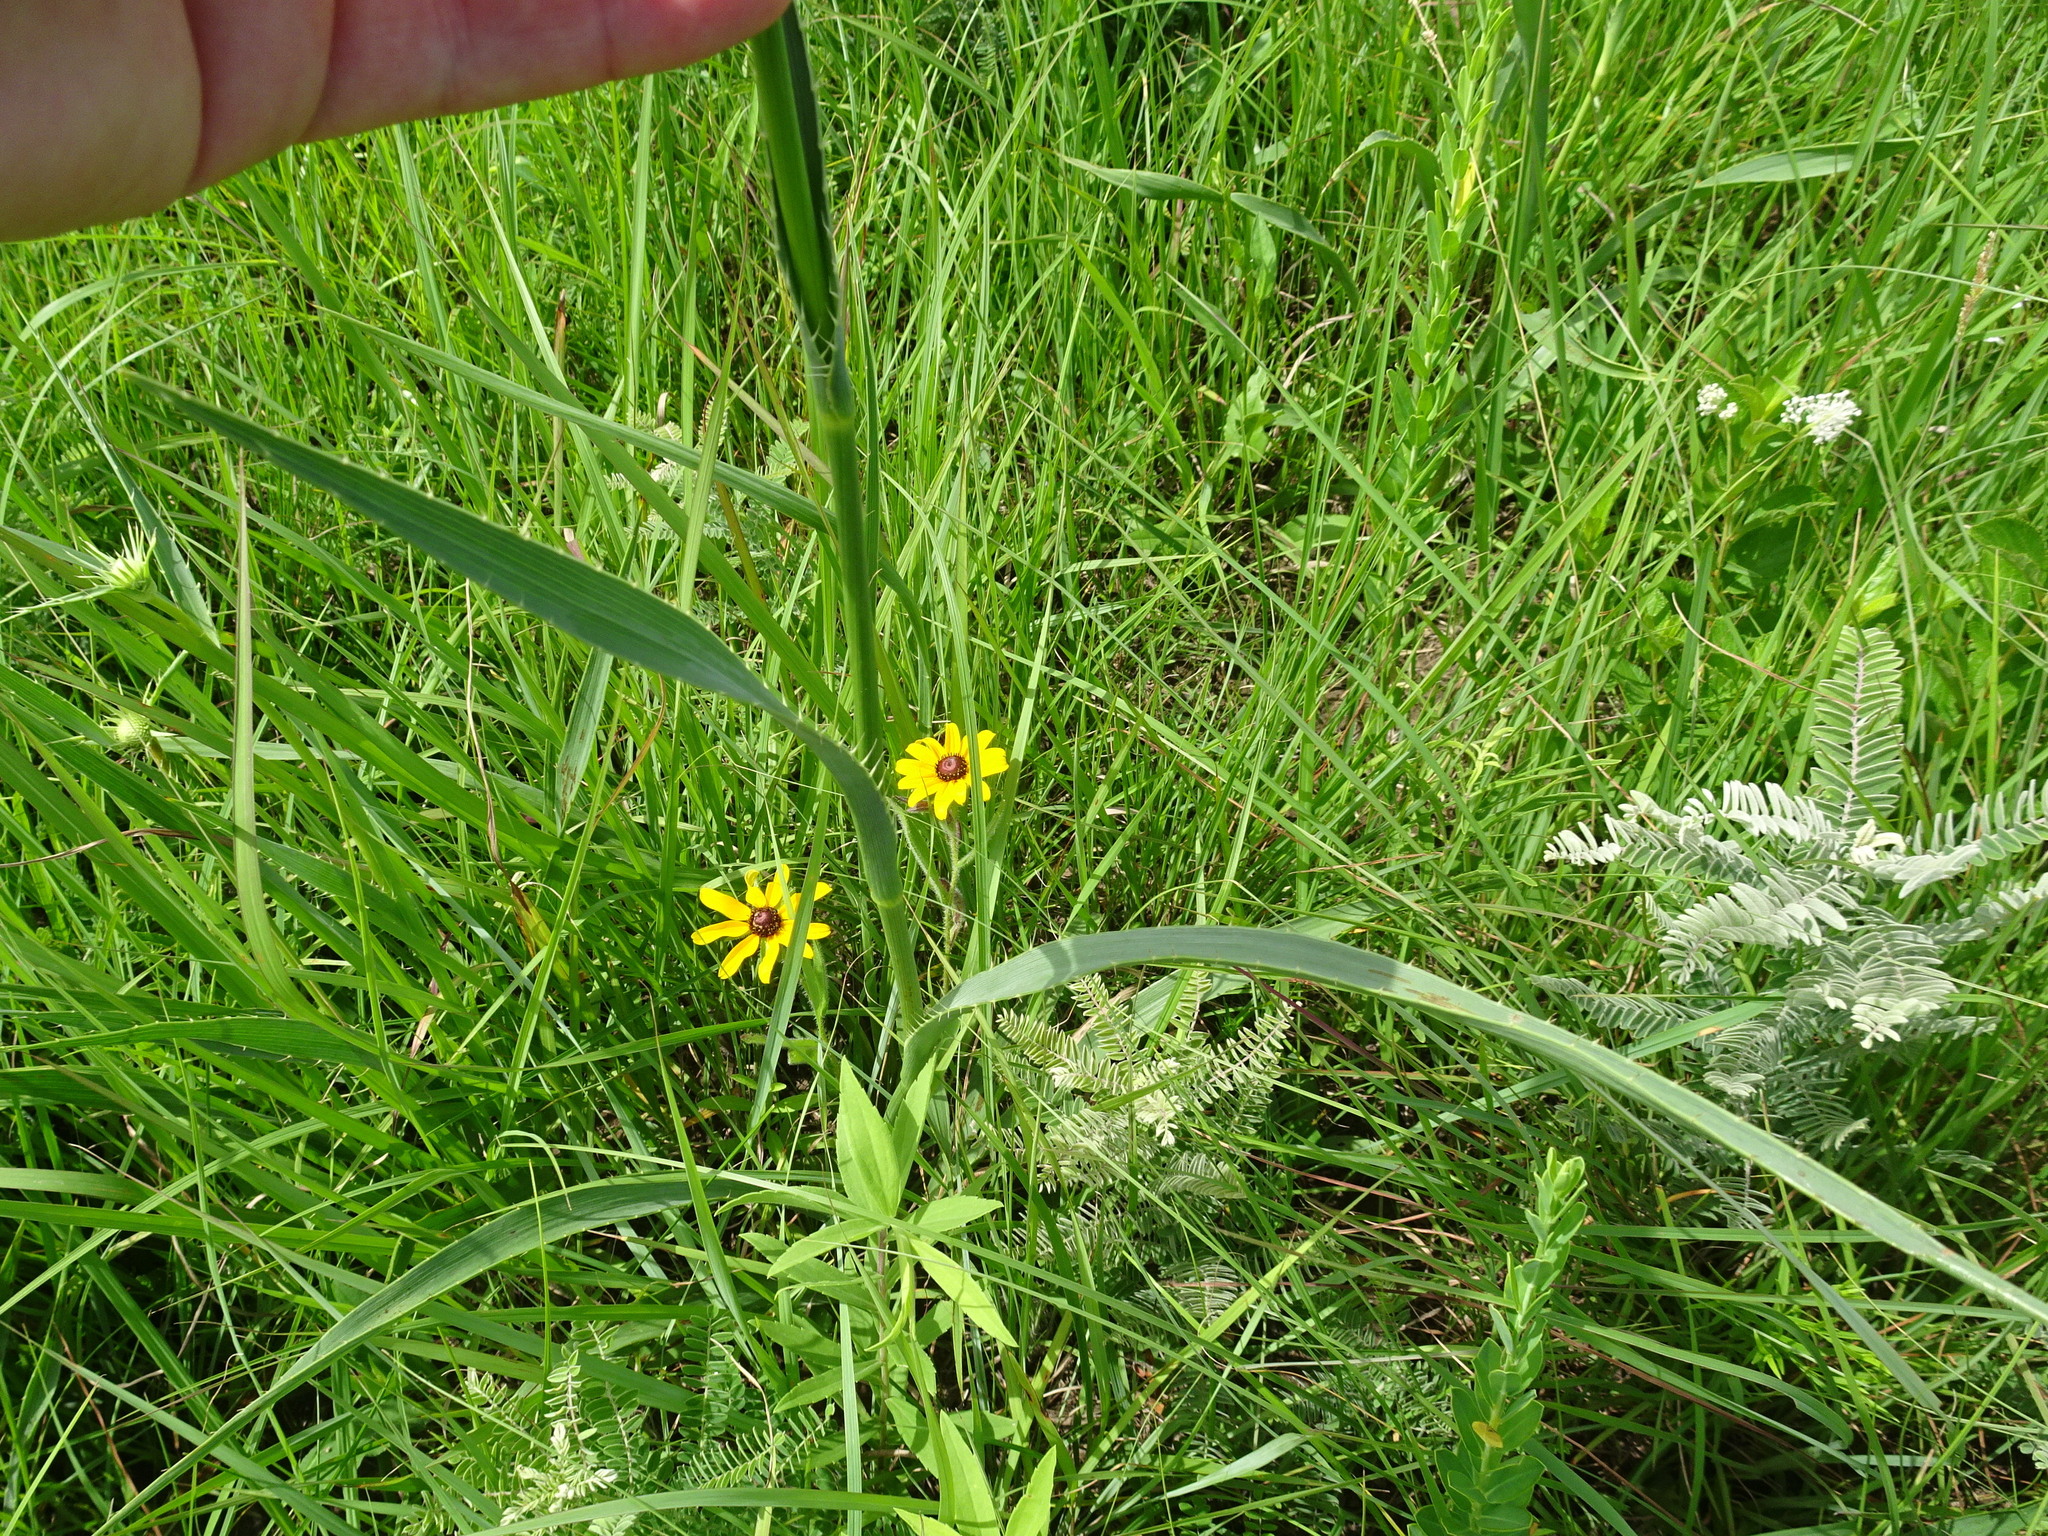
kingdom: Plantae
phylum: Tracheophyta
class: Magnoliopsida
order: Apiales
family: Apiaceae
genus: Eryngium
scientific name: Eryngium yuccifolium
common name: Button eryngo
